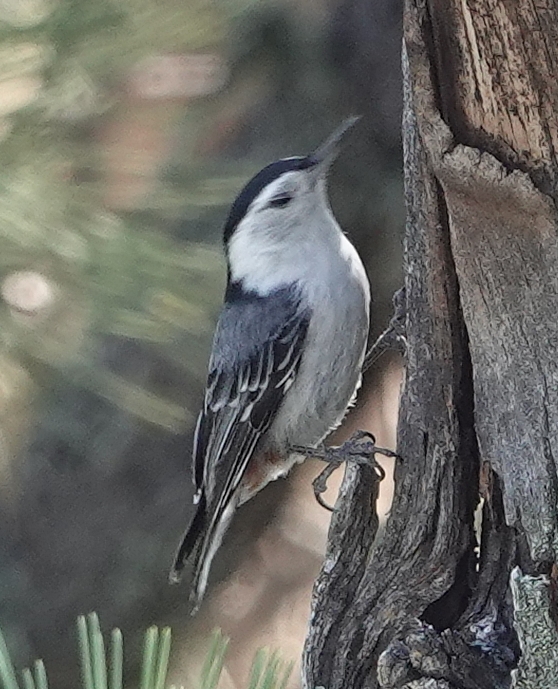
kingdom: Animalia
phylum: Chordata
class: Aves
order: Passeriformes
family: Sittidae
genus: Sitta
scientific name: Sitta carolinensis
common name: White-breasted nuthatch
